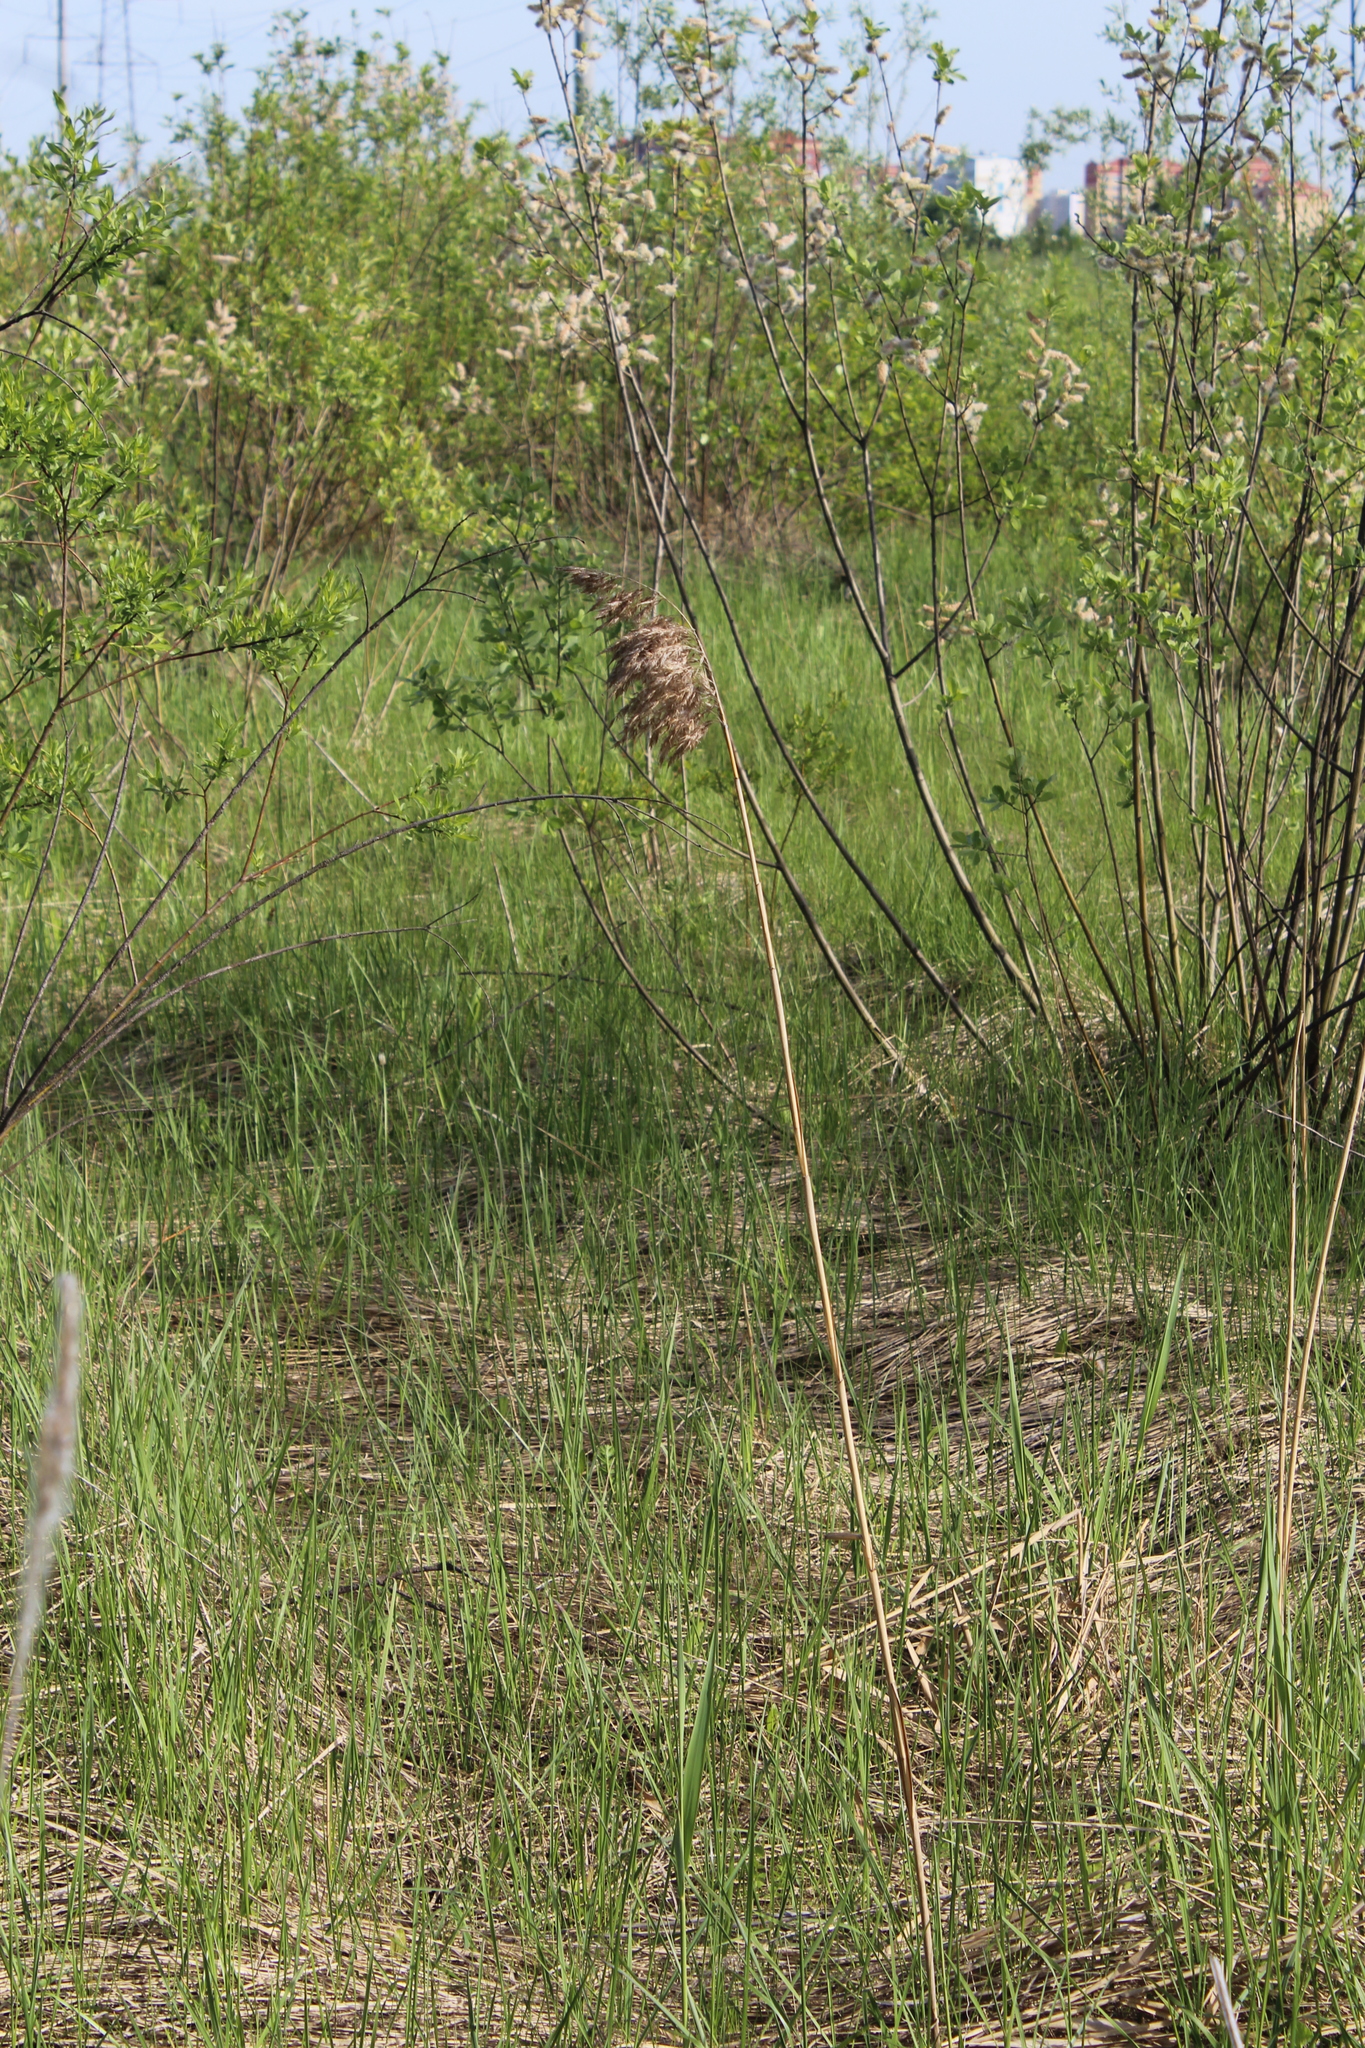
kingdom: Plantae
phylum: Tracheophyta
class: Liliopsida
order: Poales
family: Poaceae
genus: Phragmites
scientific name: Phragmites australis
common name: Common reed
